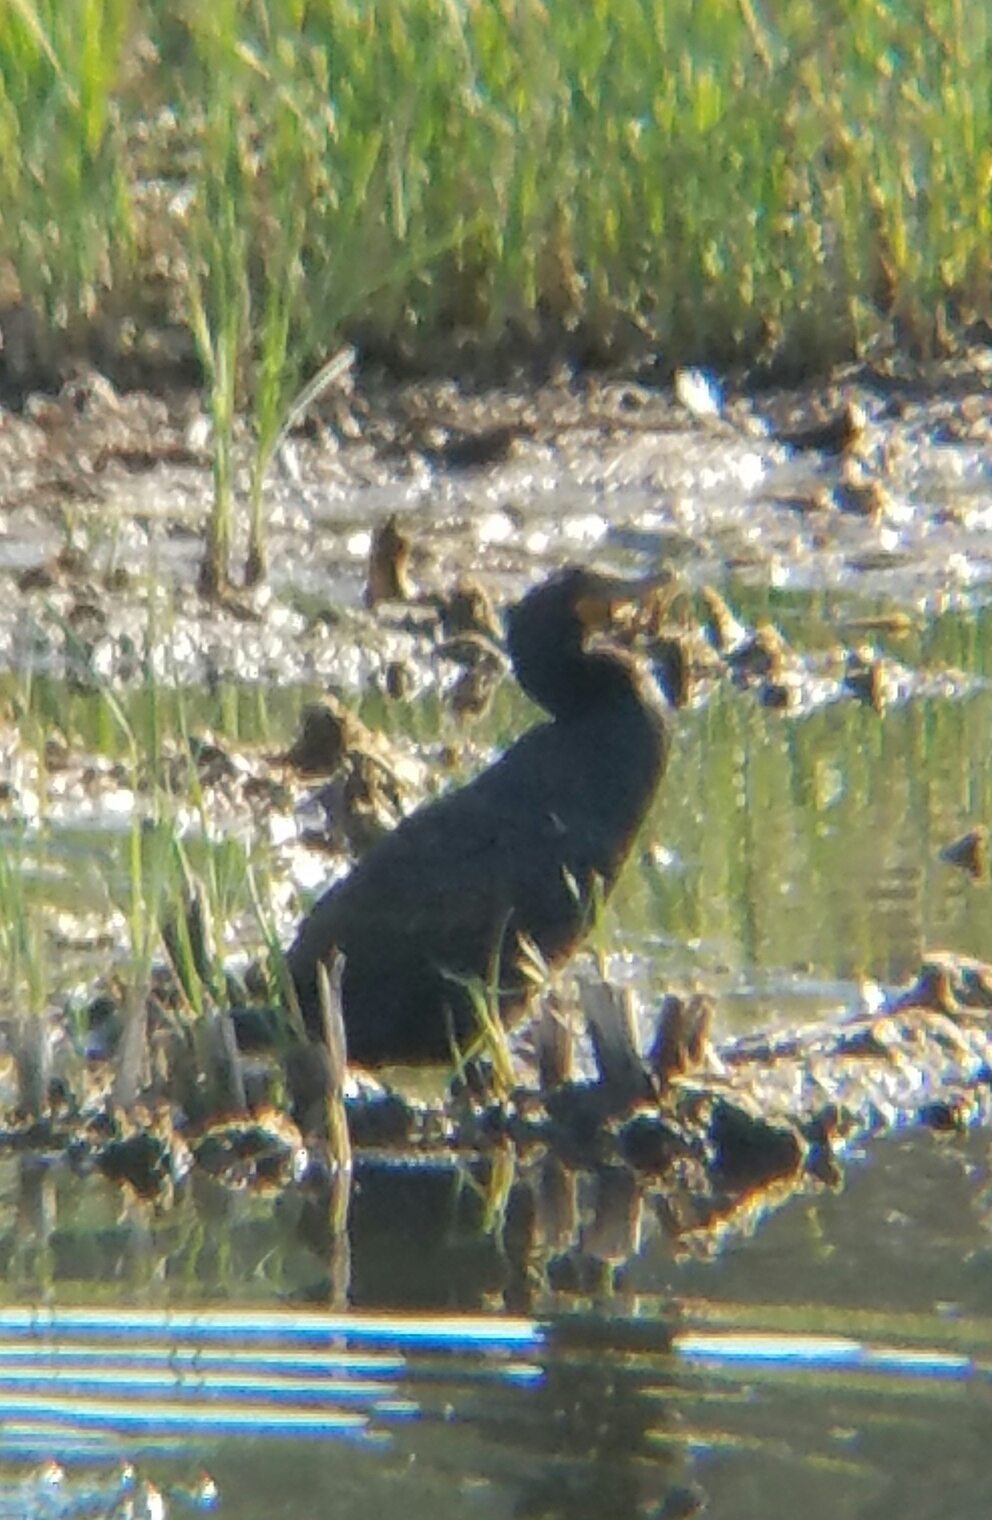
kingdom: Animalia
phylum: Chordata
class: Aves
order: Suliformes
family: Phalacrocoracidae
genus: Phalacrocorax
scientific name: Phalacrocorax auritus
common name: Double-crested cormorant
